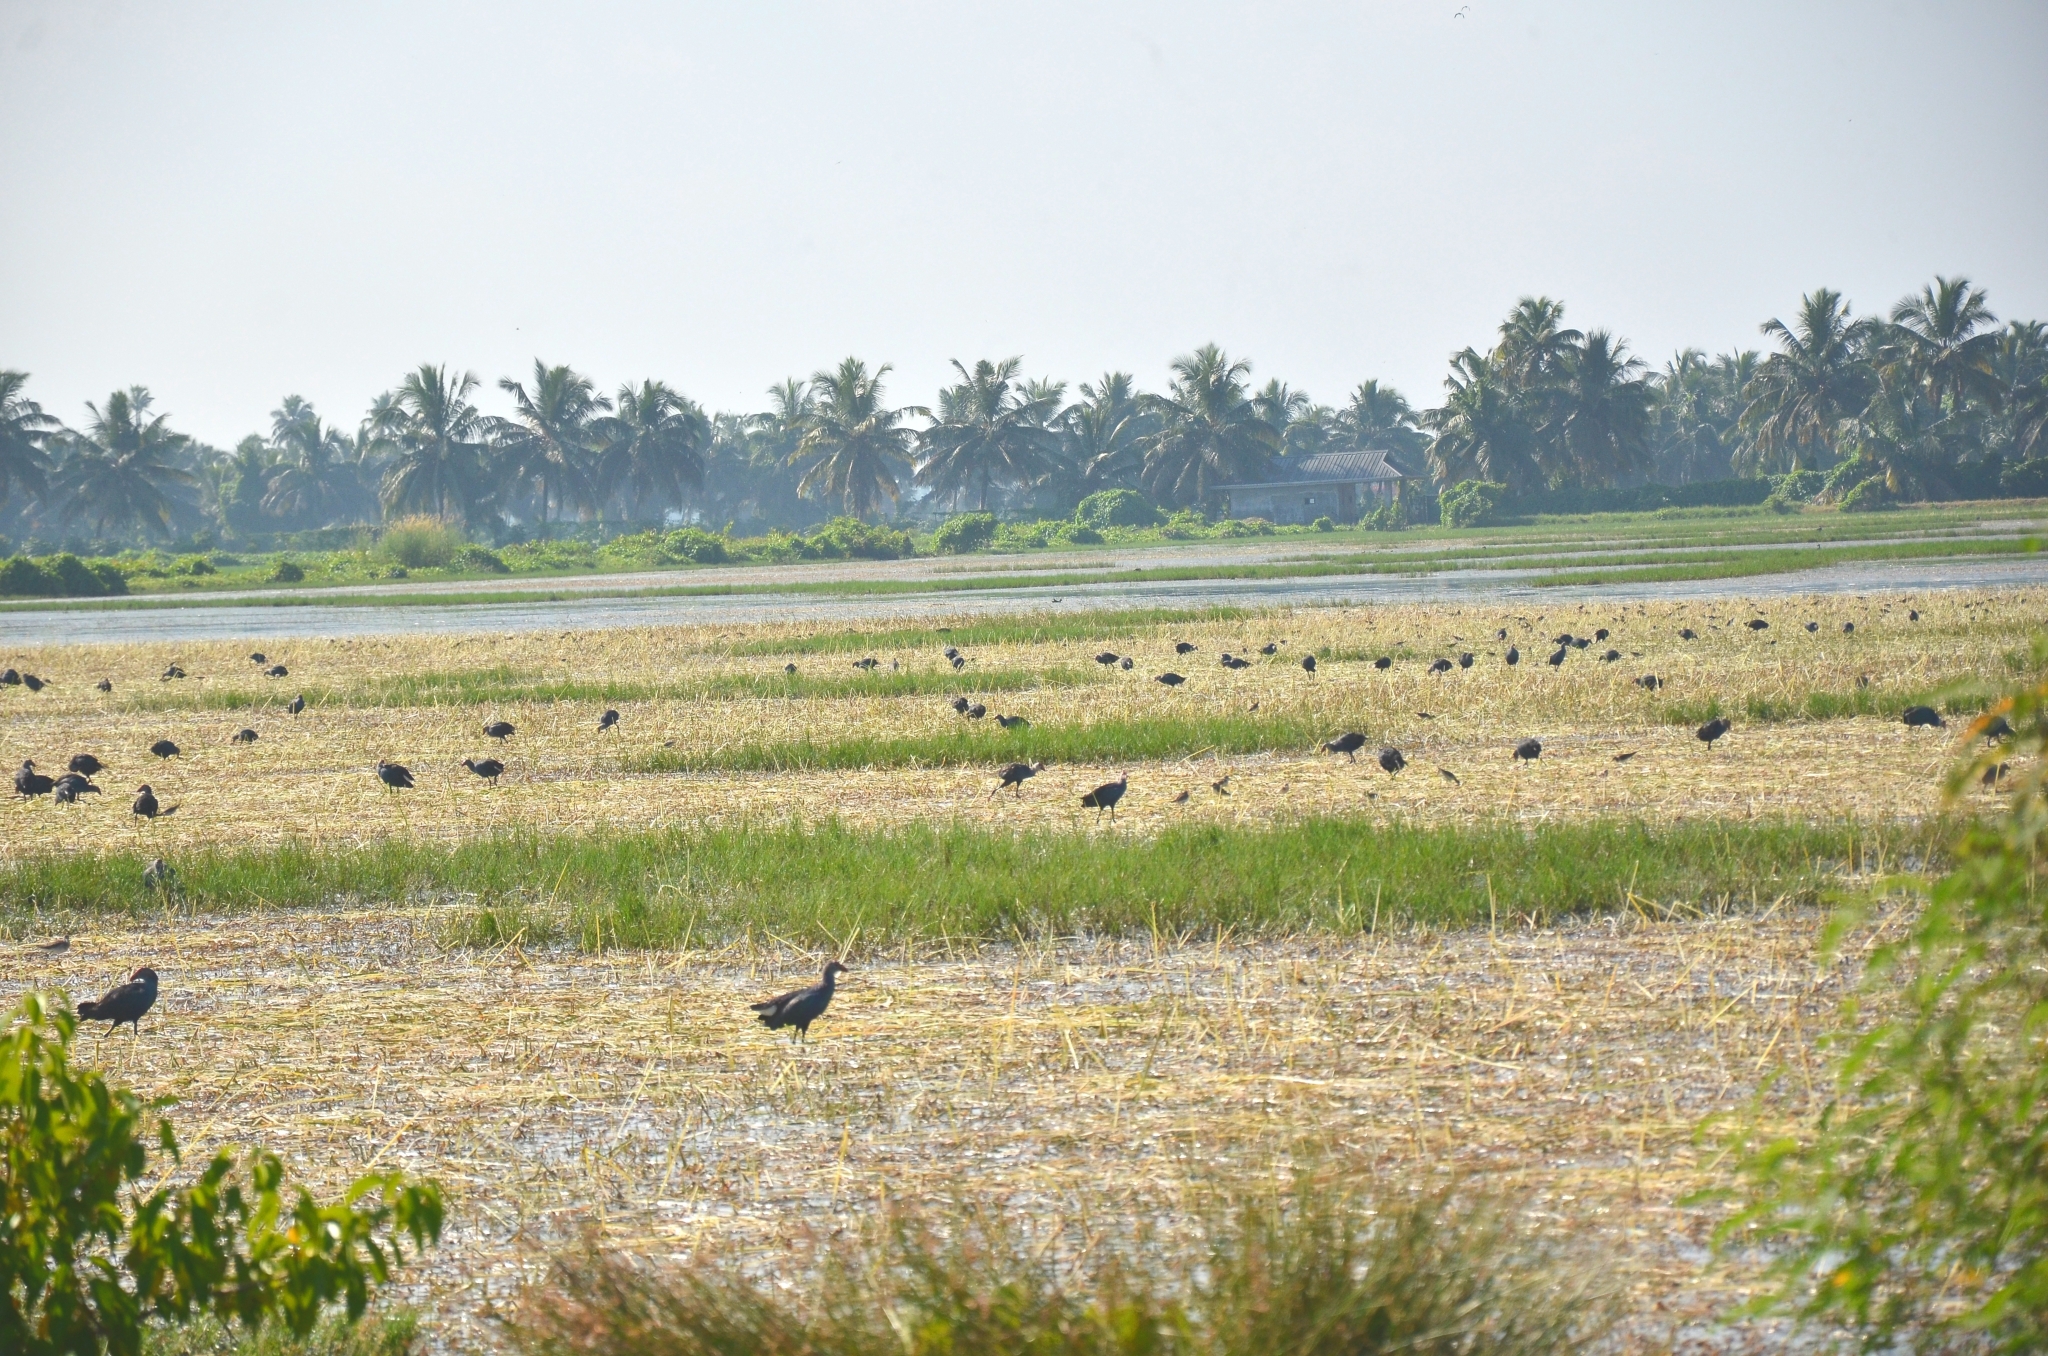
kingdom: Animalia
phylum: Chordata
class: Aves
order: Gruiformes
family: Rallidae
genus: Porphyrio
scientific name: Porphyrio porphyrio
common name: Purple swamphen
